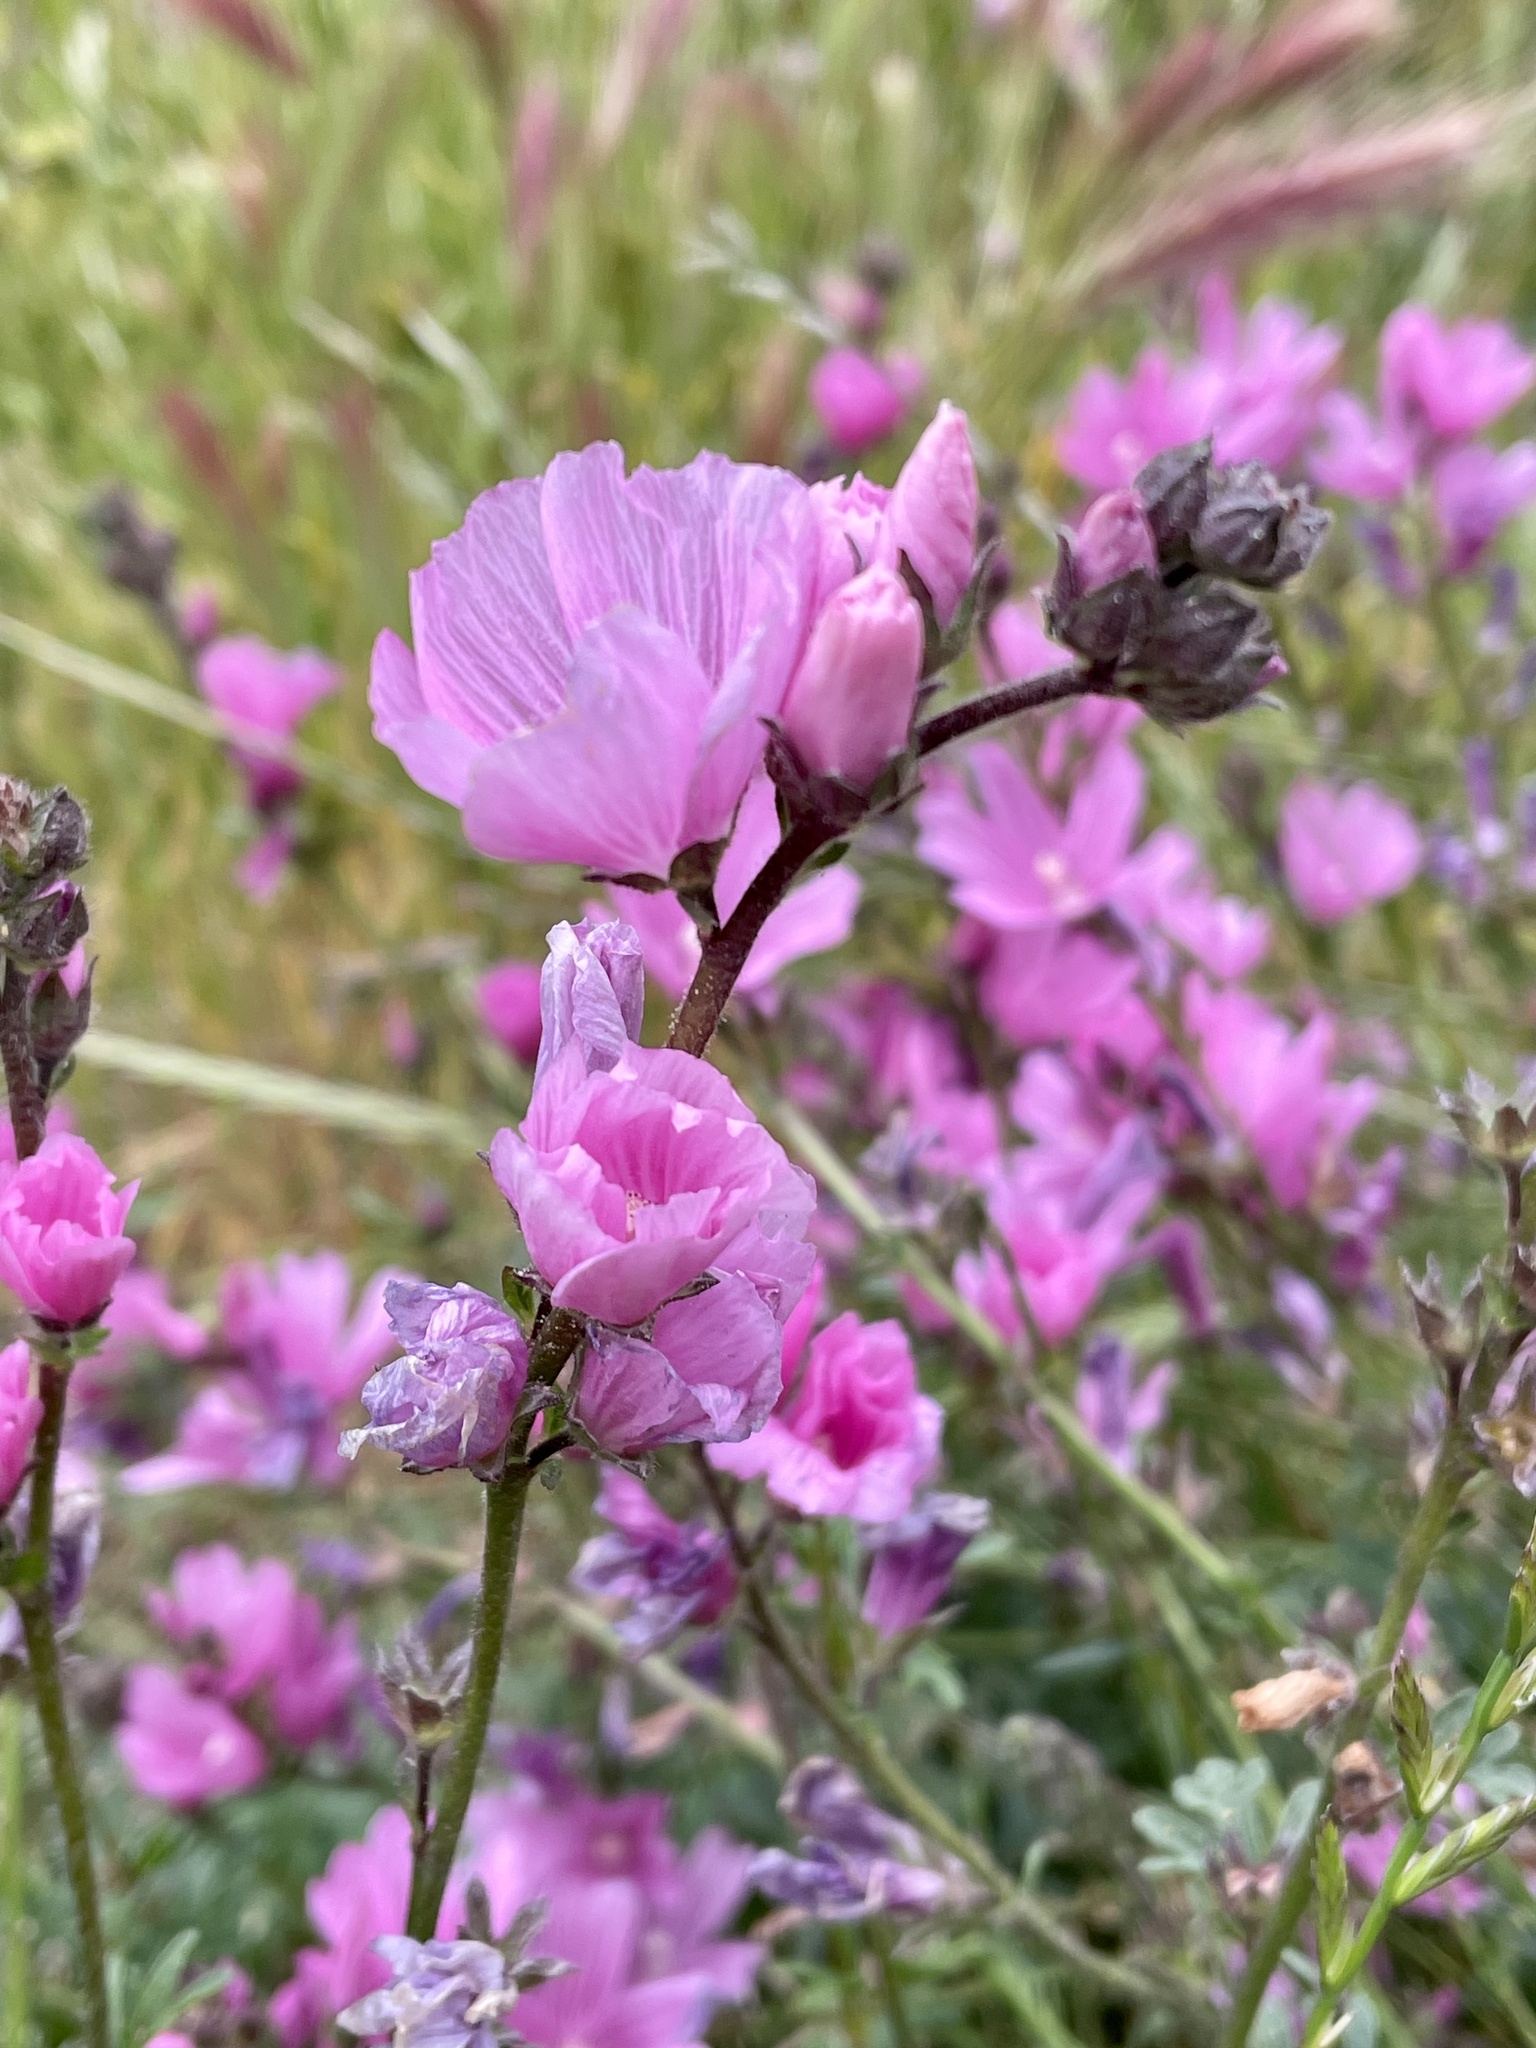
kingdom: Plantae
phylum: Tracheophyta
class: Magnoliopsida
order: Malvales
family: Malvaceae
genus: Sidalcea
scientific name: Sidalcea malviflora
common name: Greek mallow
